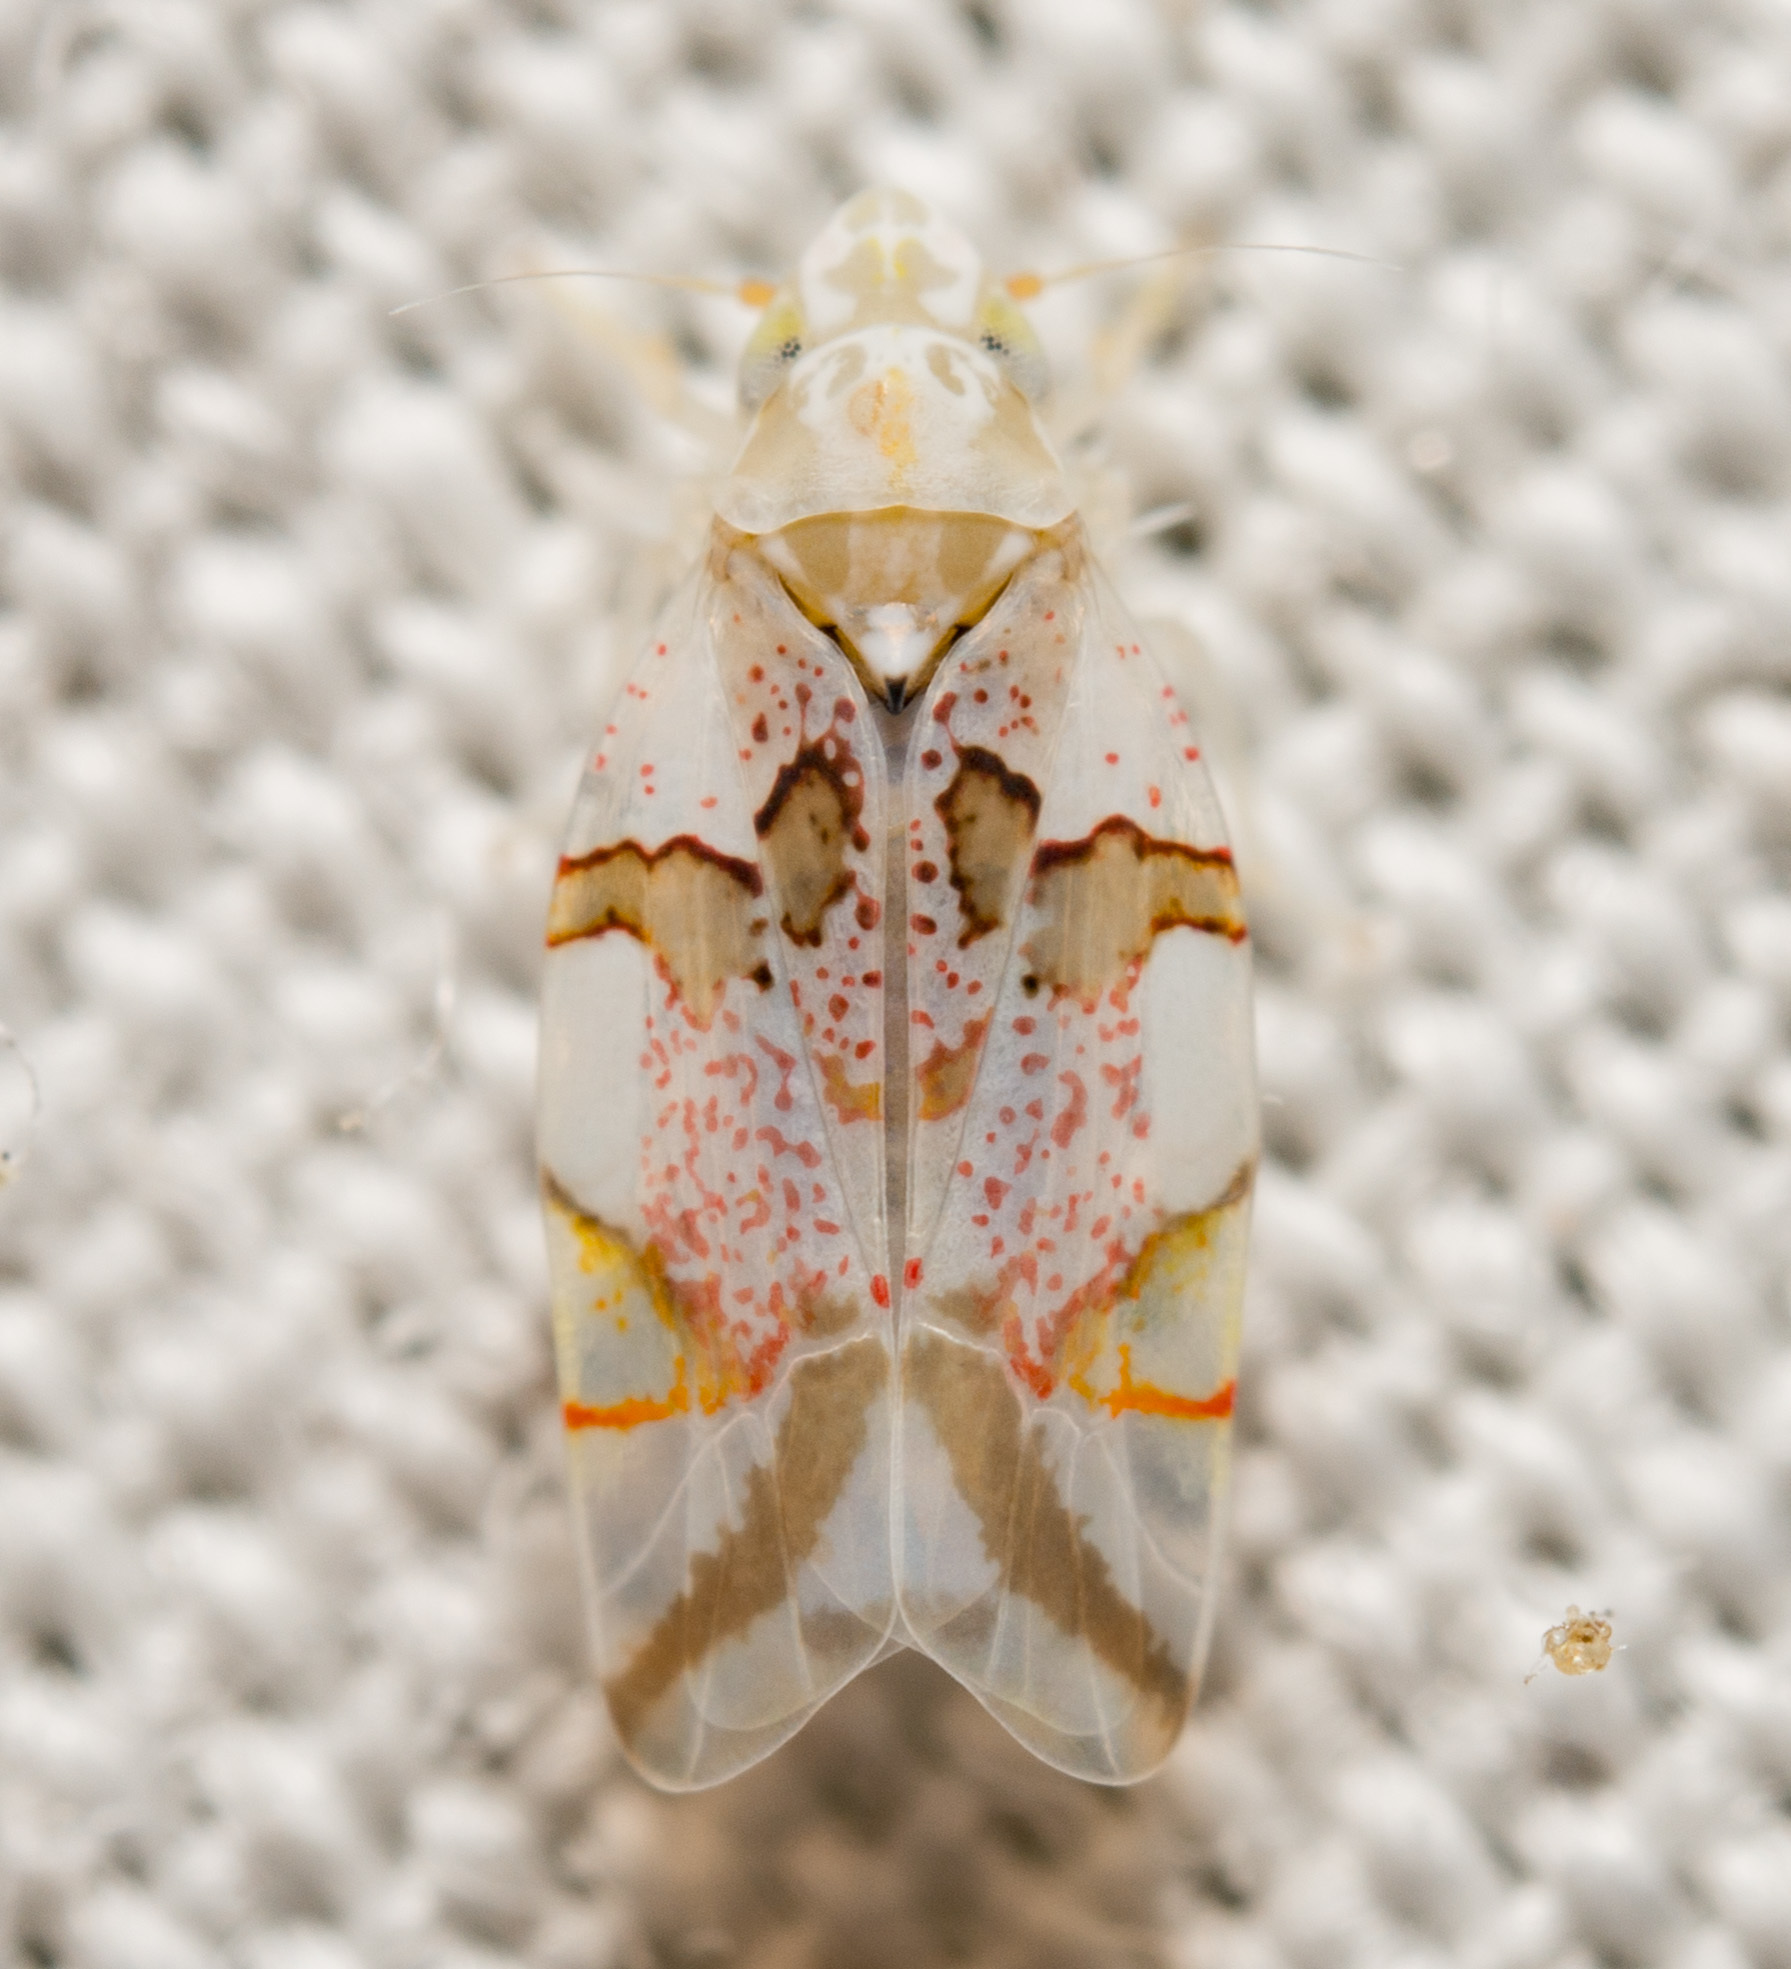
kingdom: Animalia
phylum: Arthropoda
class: Insecta
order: Hemiptera
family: Cicadellidae
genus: Hymetta
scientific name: Hymetta trifasciata
